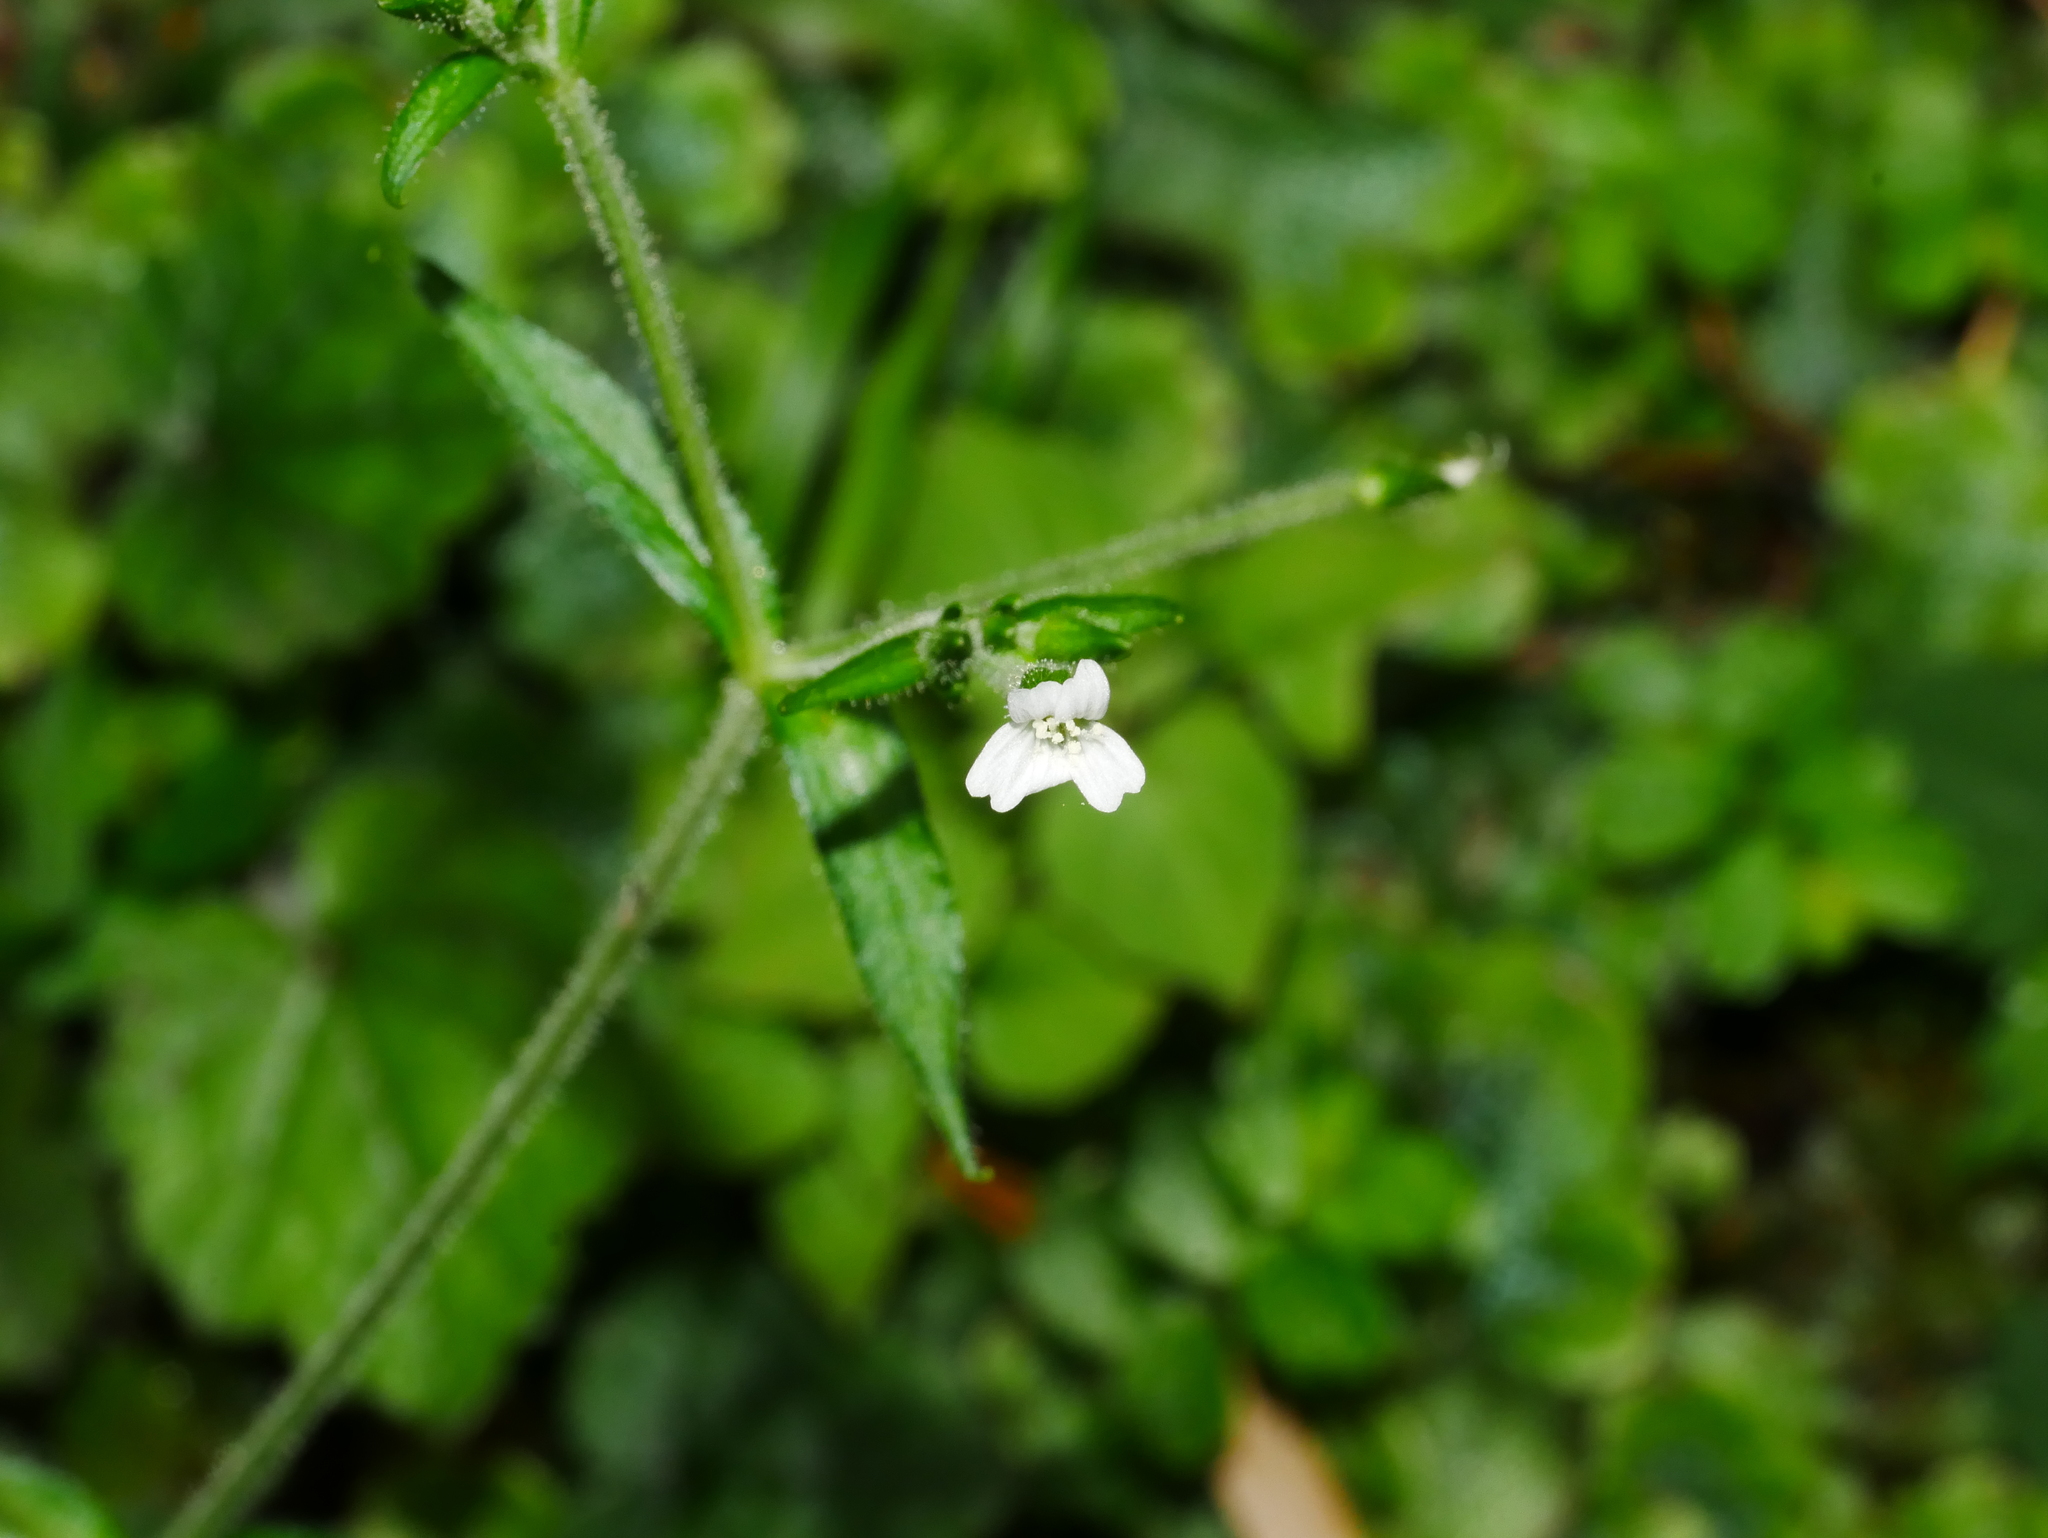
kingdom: Plantae
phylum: Tracheophyta
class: Magnoliopsida
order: Caryophyllales
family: Caryophyllaceae
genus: Cerastium
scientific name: Cerastium takasagomontanum
